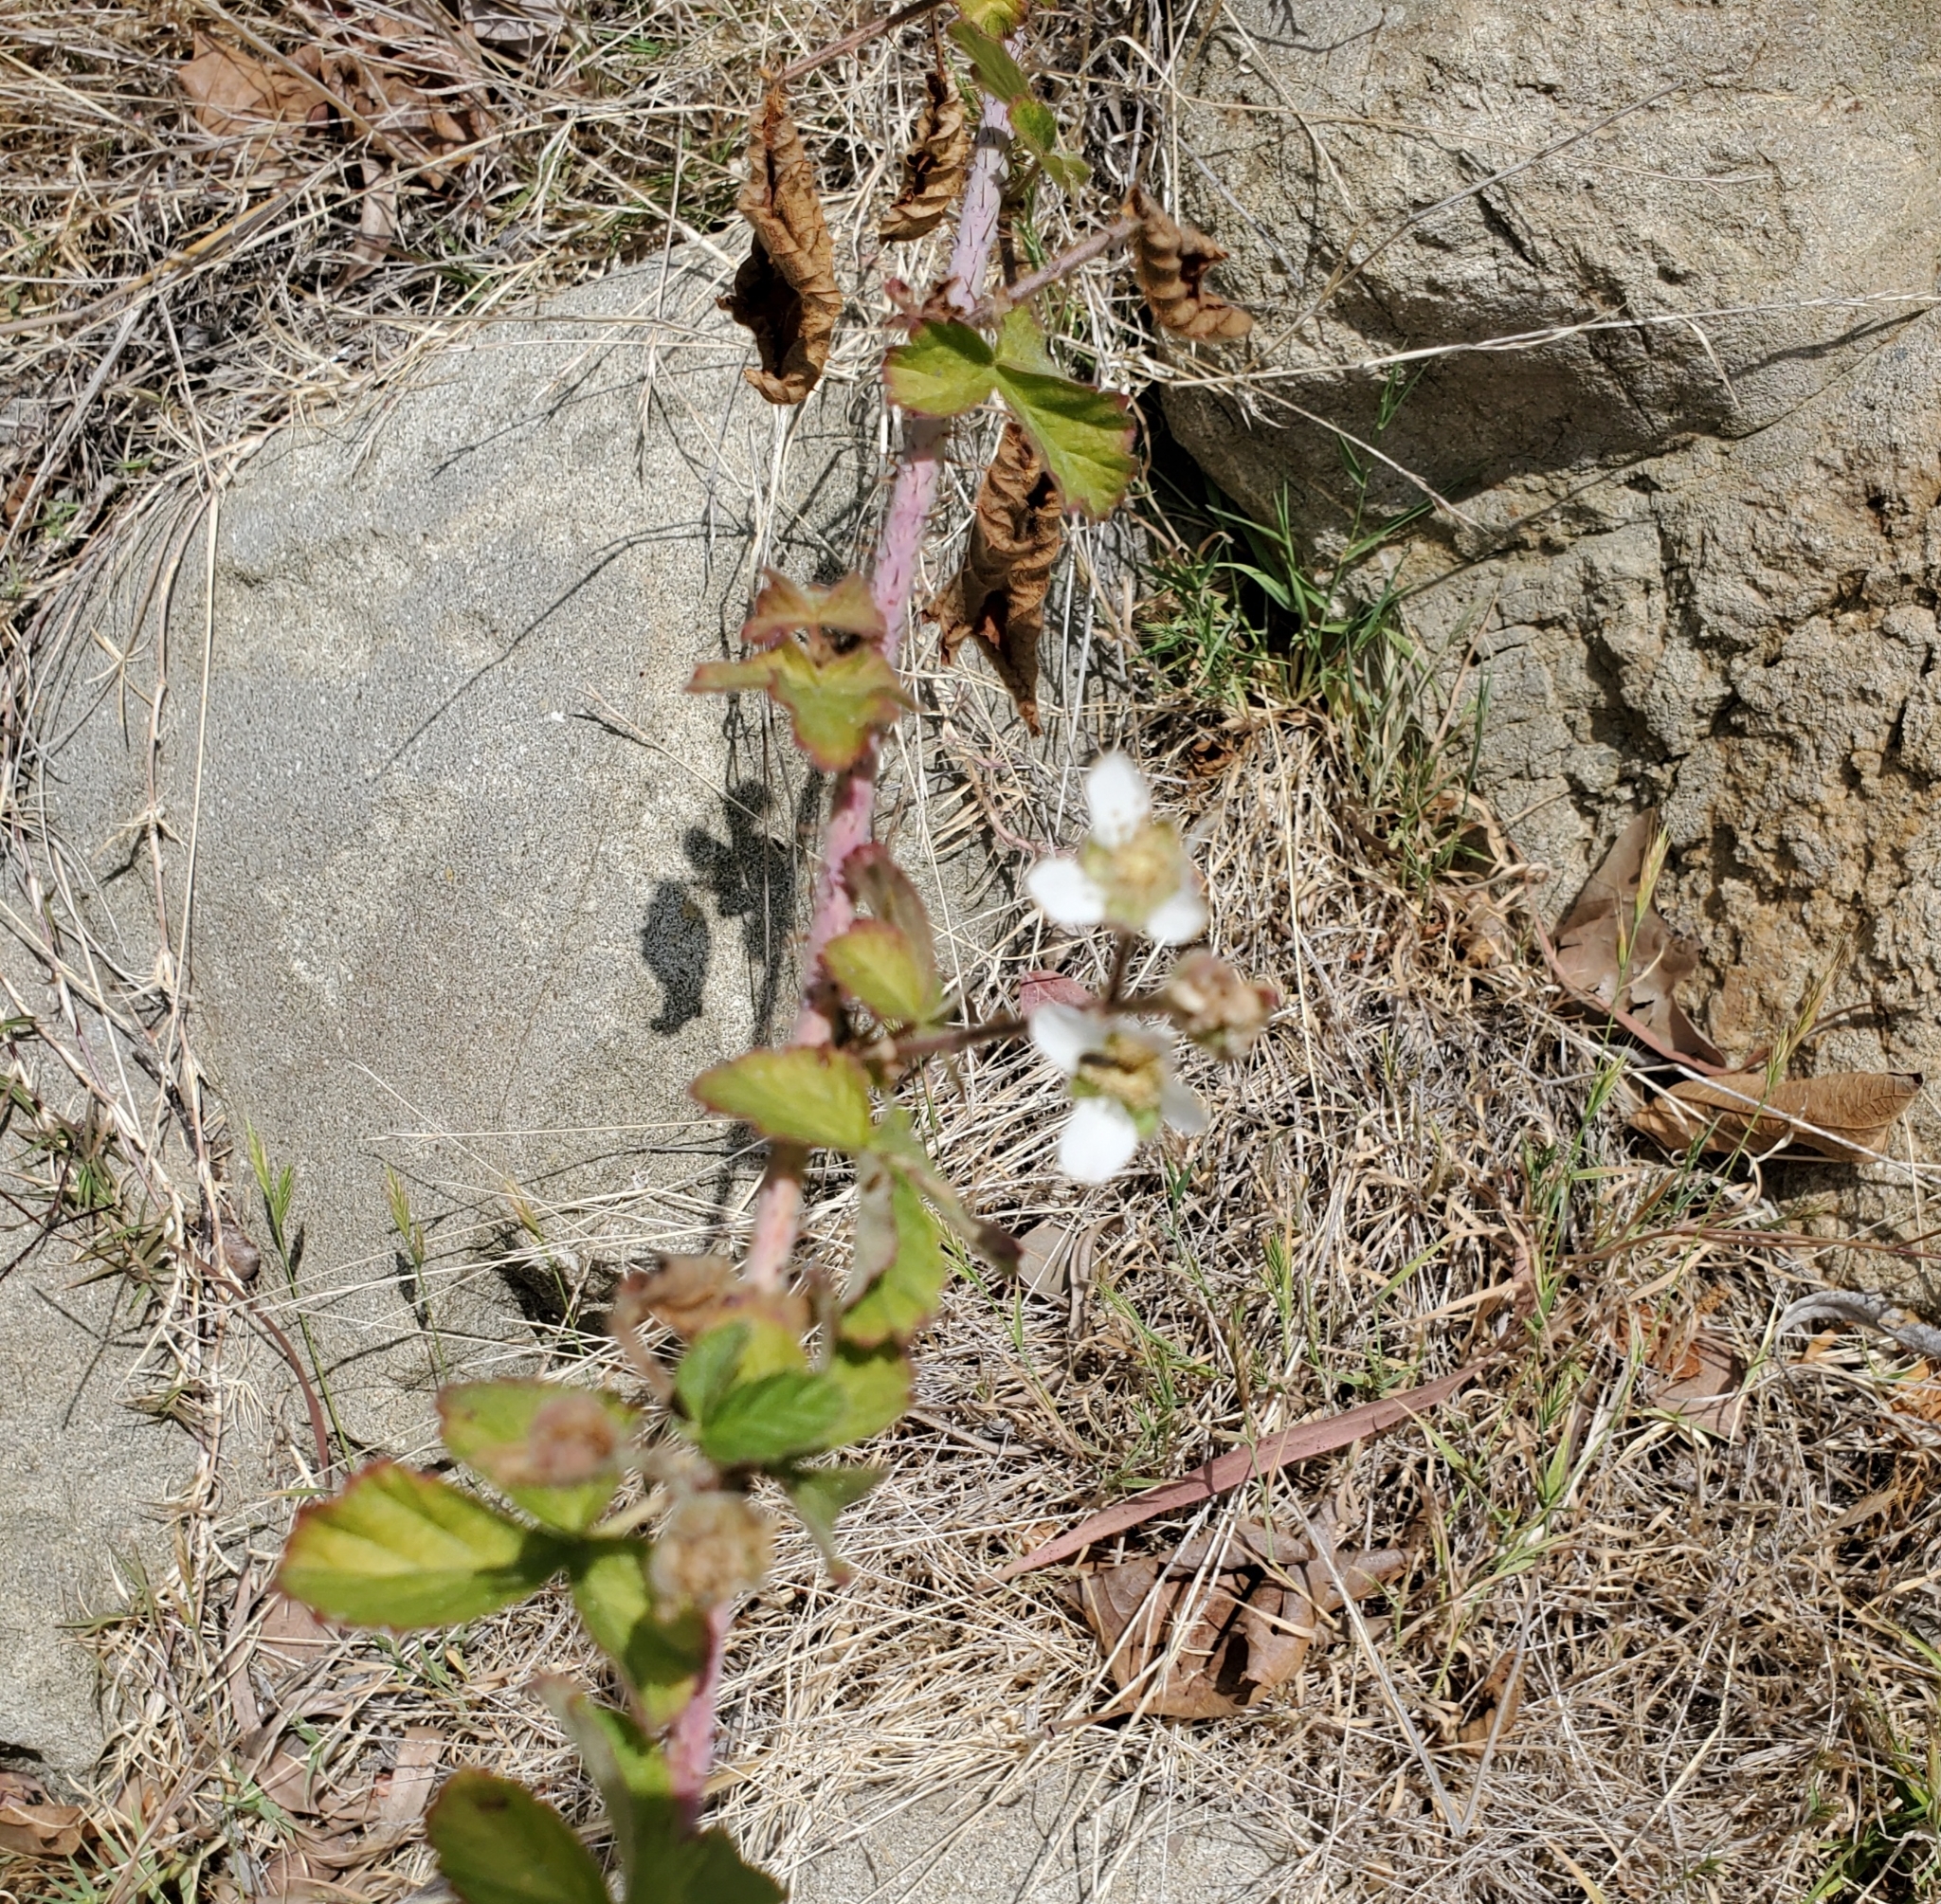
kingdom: Plantae
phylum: Tracheophyta
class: Magnoliopsida
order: Rosales
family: Rosaceae
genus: Rubus
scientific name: Rubus ursinus
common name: Pacific blackberry
